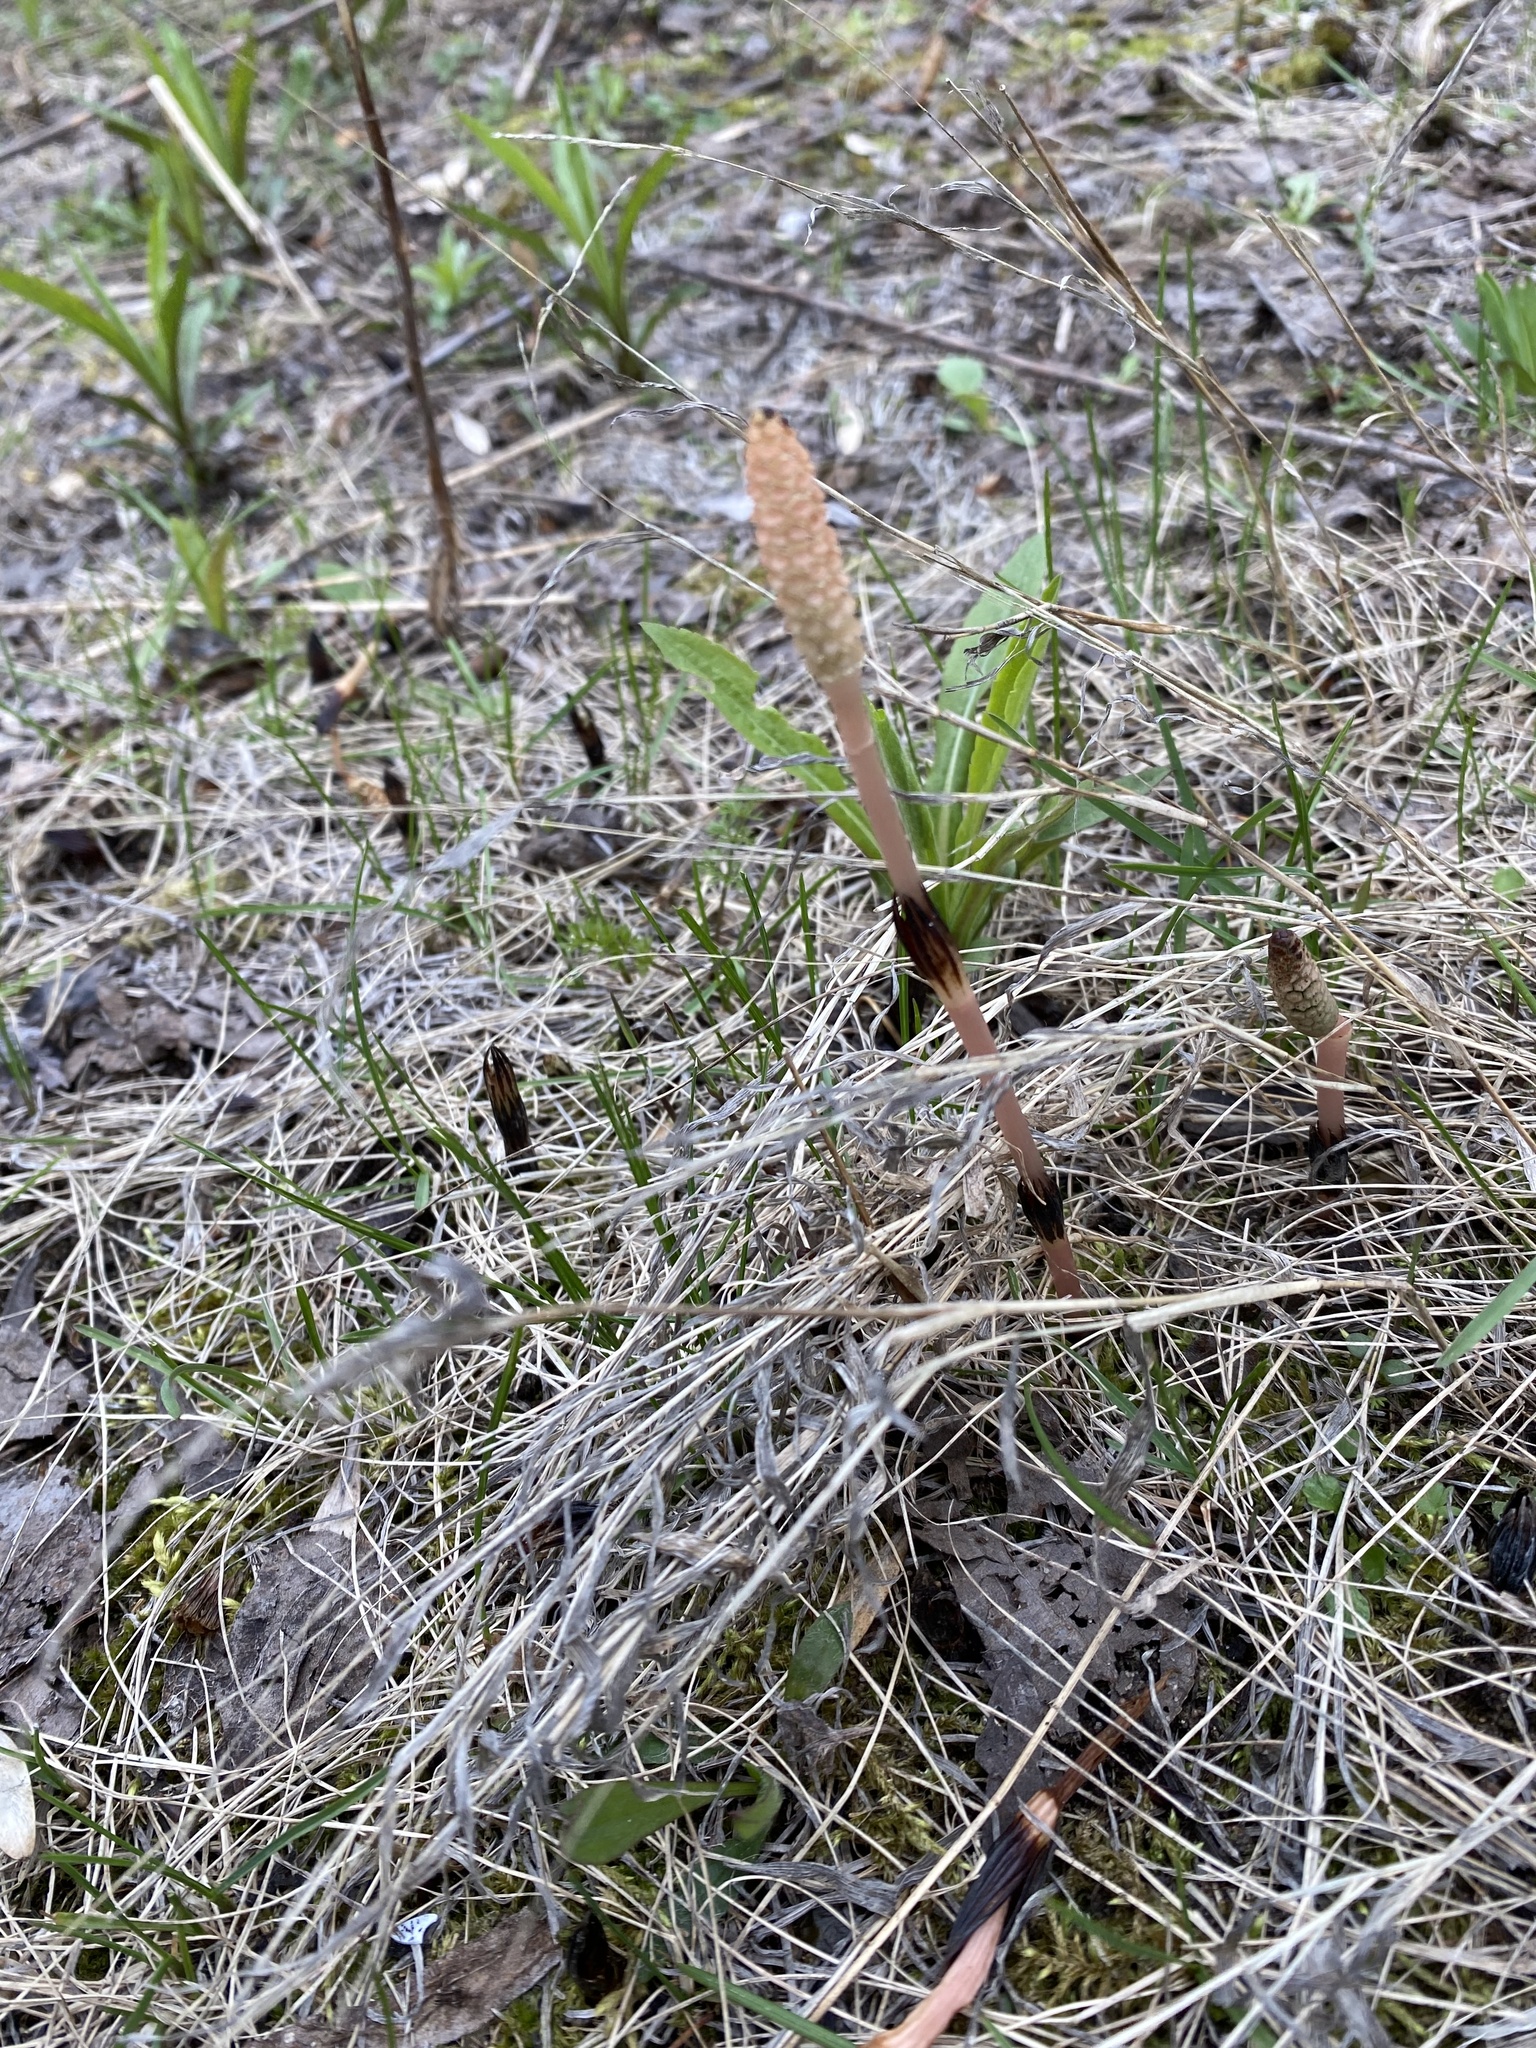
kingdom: Plantae
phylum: Tracheophyta
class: Polypodiopsida
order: Equisetales
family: Equisetaceae
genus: Equisetum
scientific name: Equisetum arvense
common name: Field horsetail
